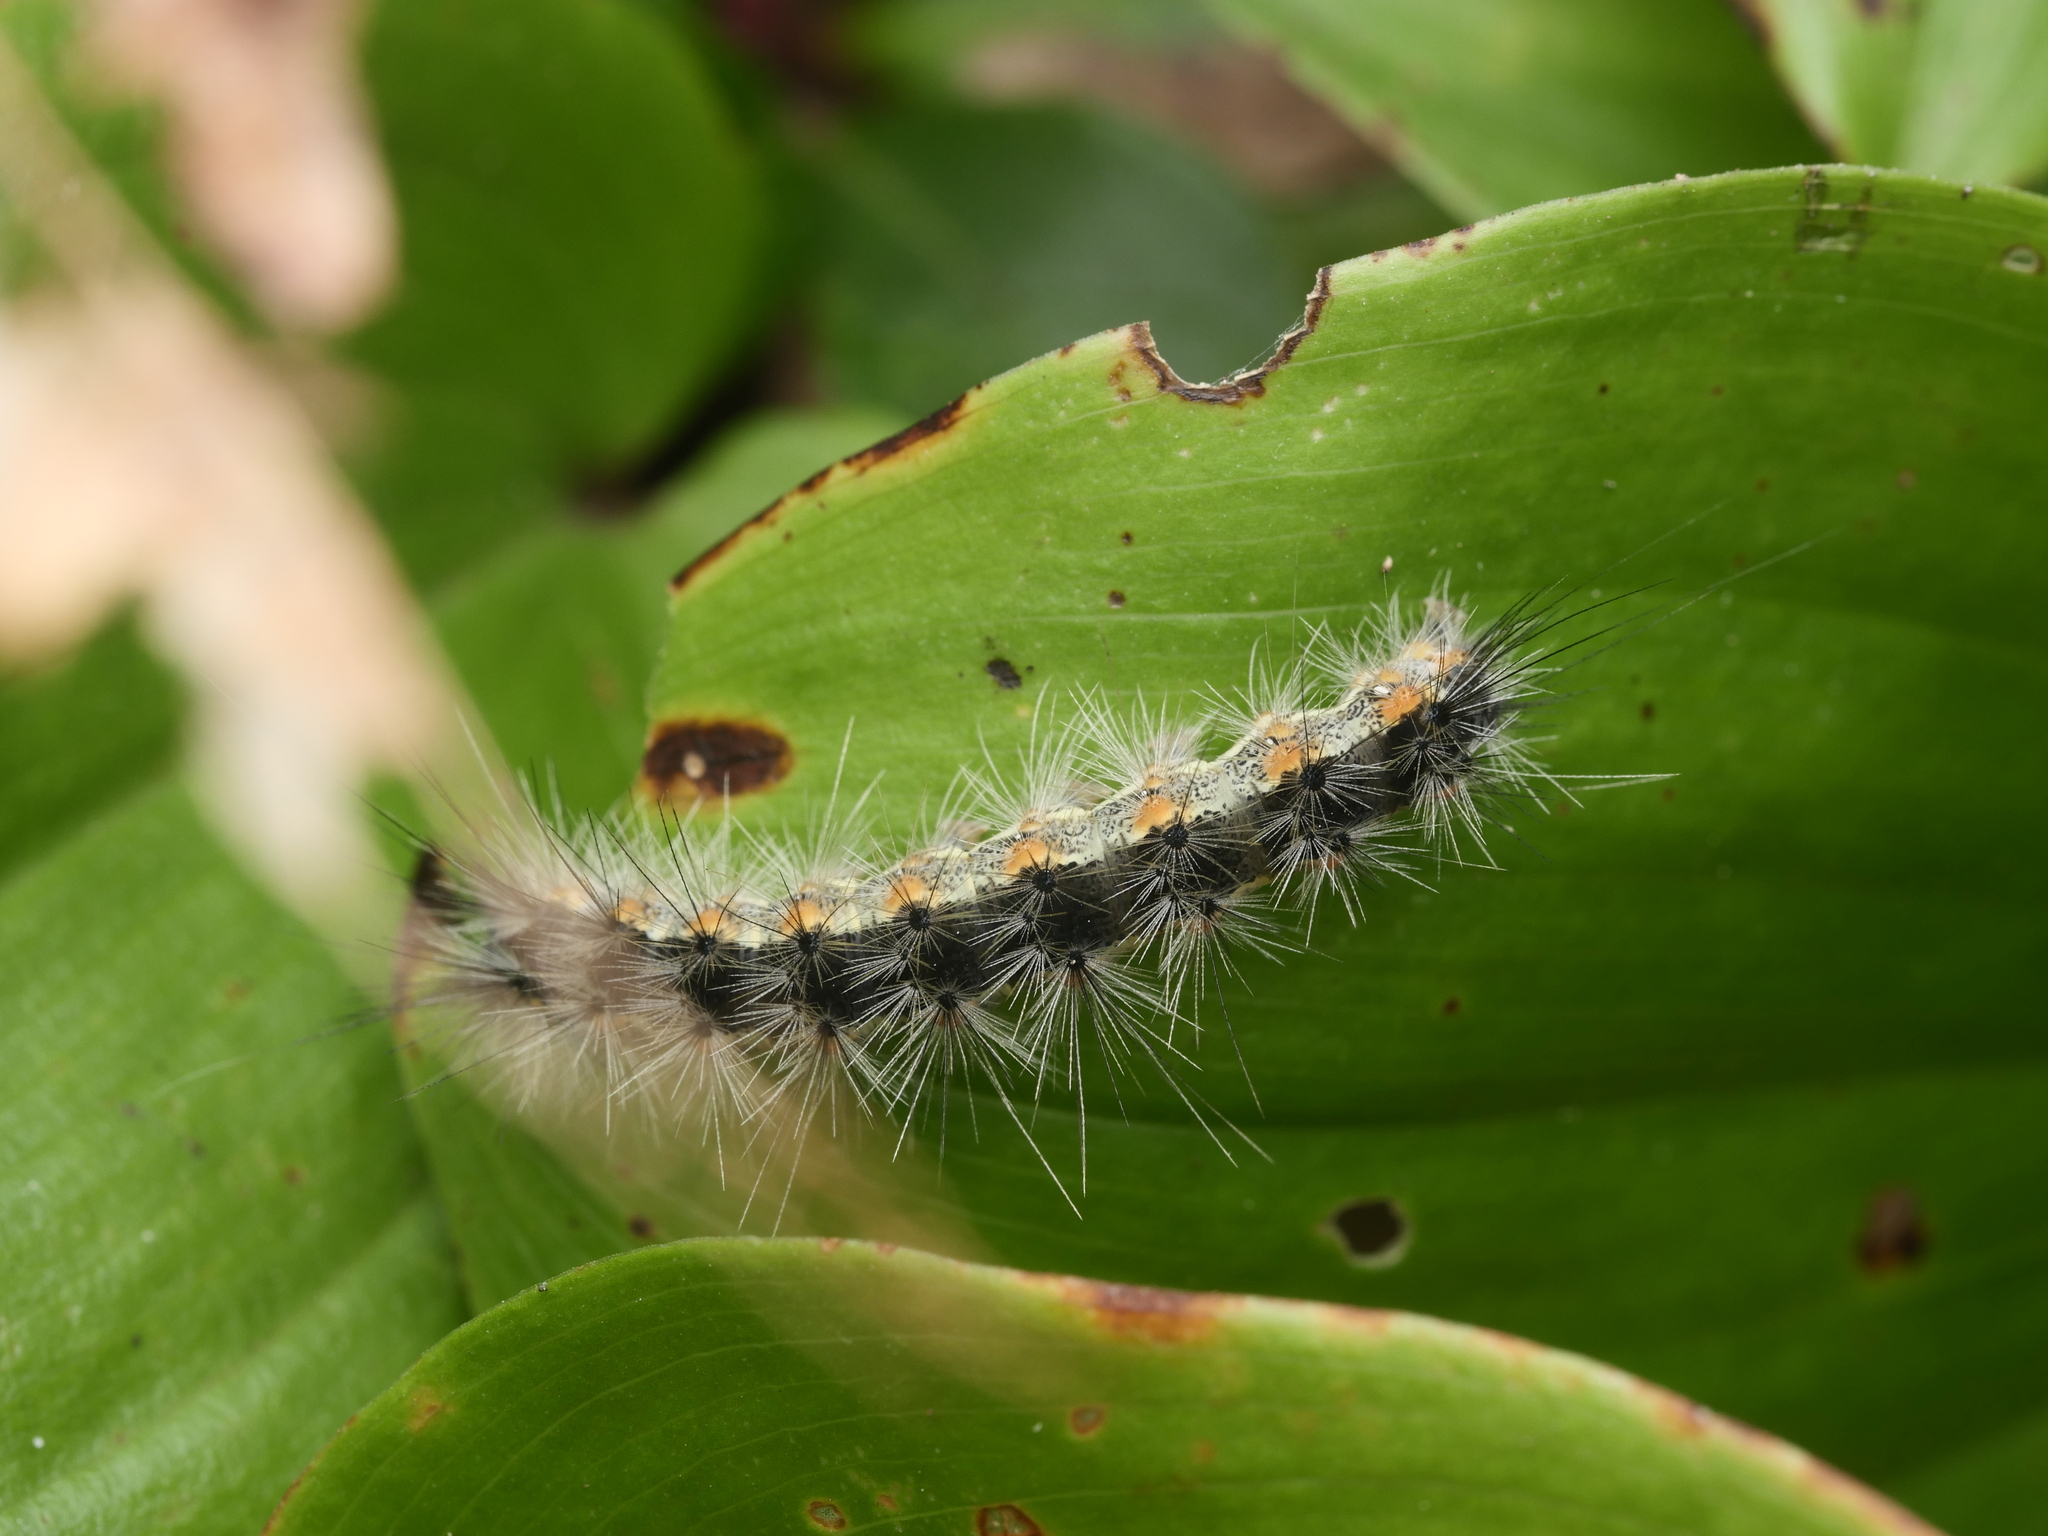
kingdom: Animalia
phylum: Arthropoda
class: Insecta
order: Lepidoptera
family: Erebidae
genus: Hyphantria
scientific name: Hyphantria cunea
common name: American white moth
